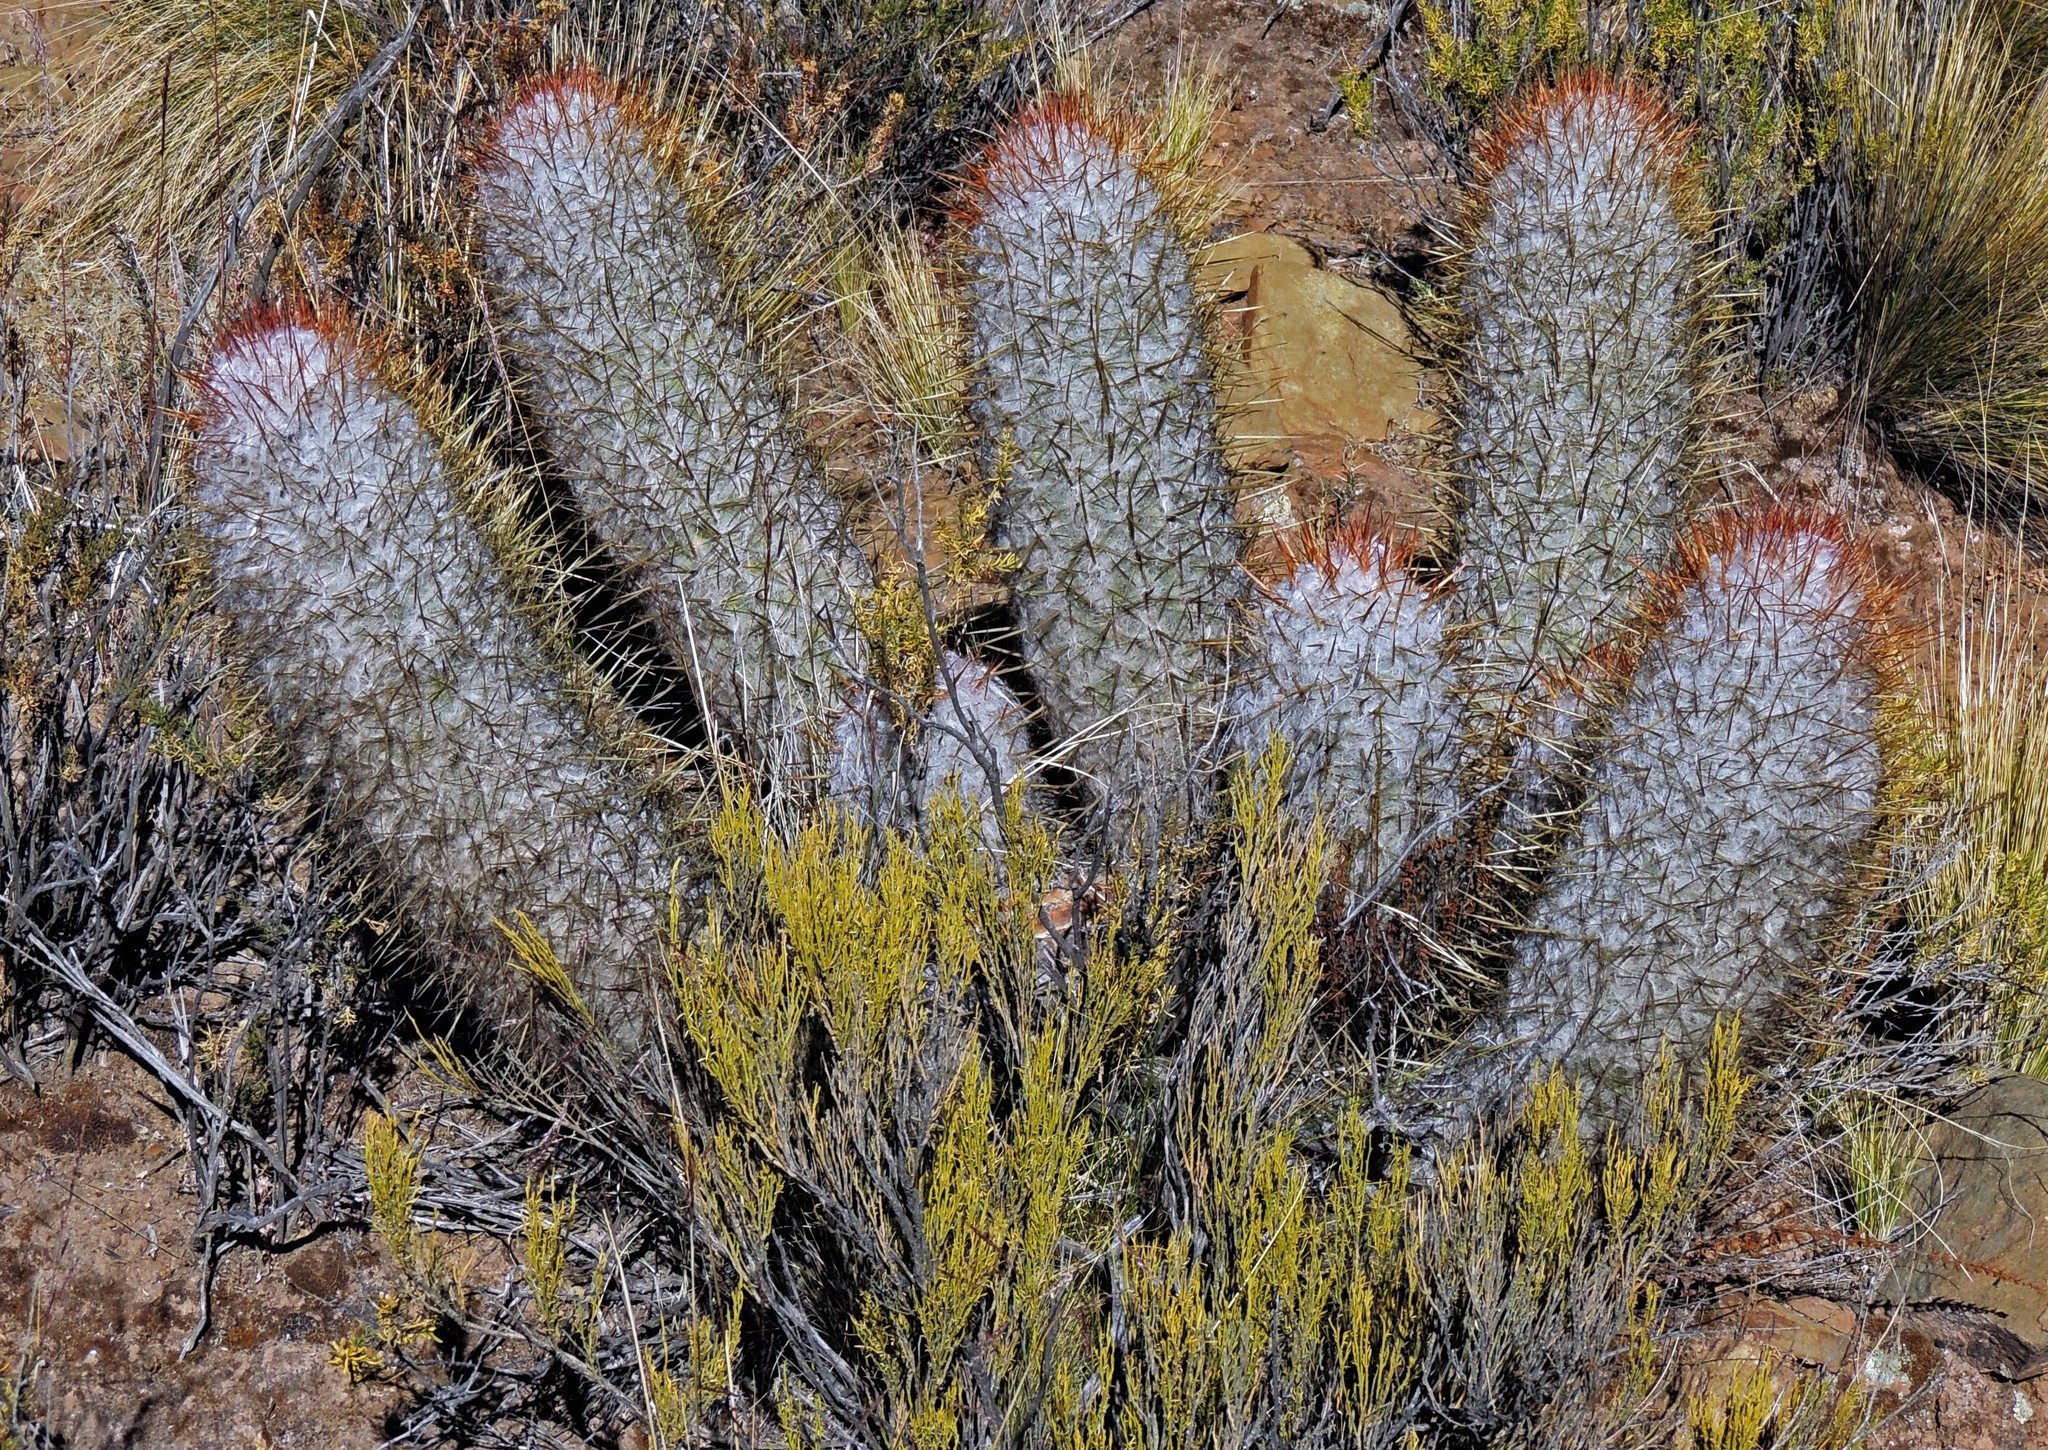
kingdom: Plantae
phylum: Tracheophyta
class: Magnoliopsida
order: Caryophyllales
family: Cactaceae
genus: Oreocereus
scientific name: Oreocereus trollii
